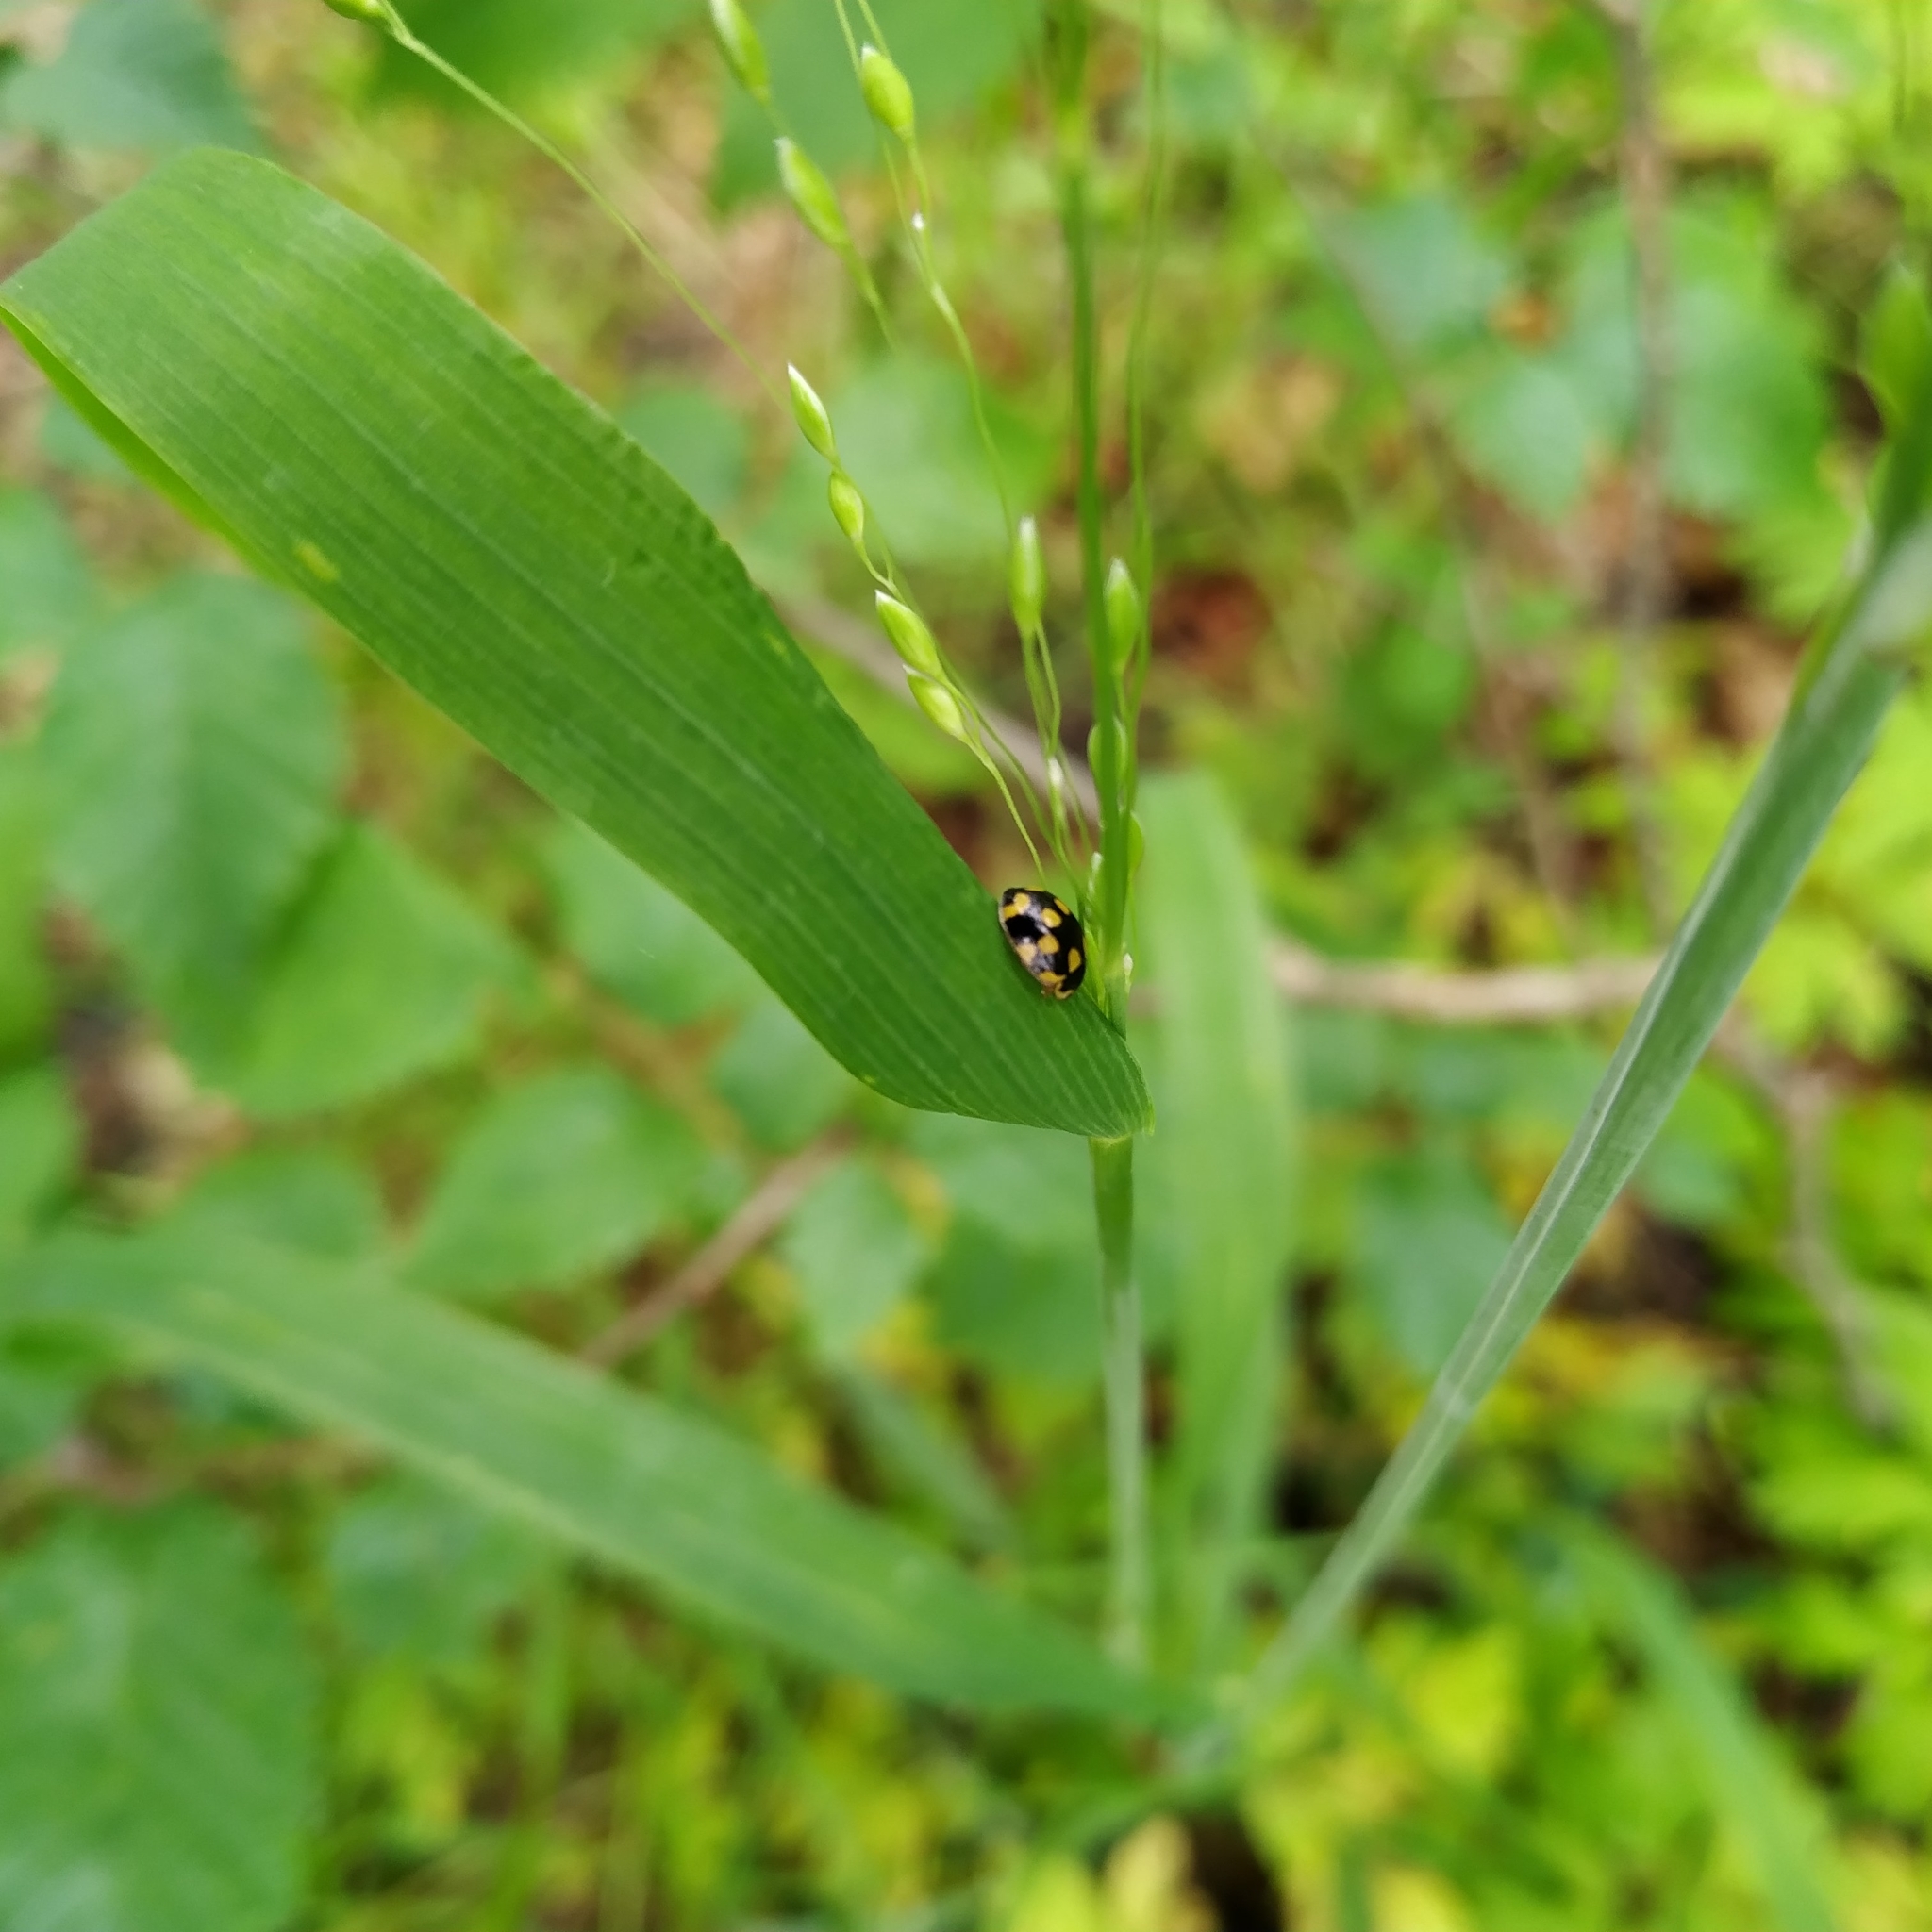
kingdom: Animalia
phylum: Arthropoda
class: Insecta
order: Coleoptera
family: Coccinellidae
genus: Propylaea
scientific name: Propylaea quatuordecimpunctata
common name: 14-spotted ladybird beetle
